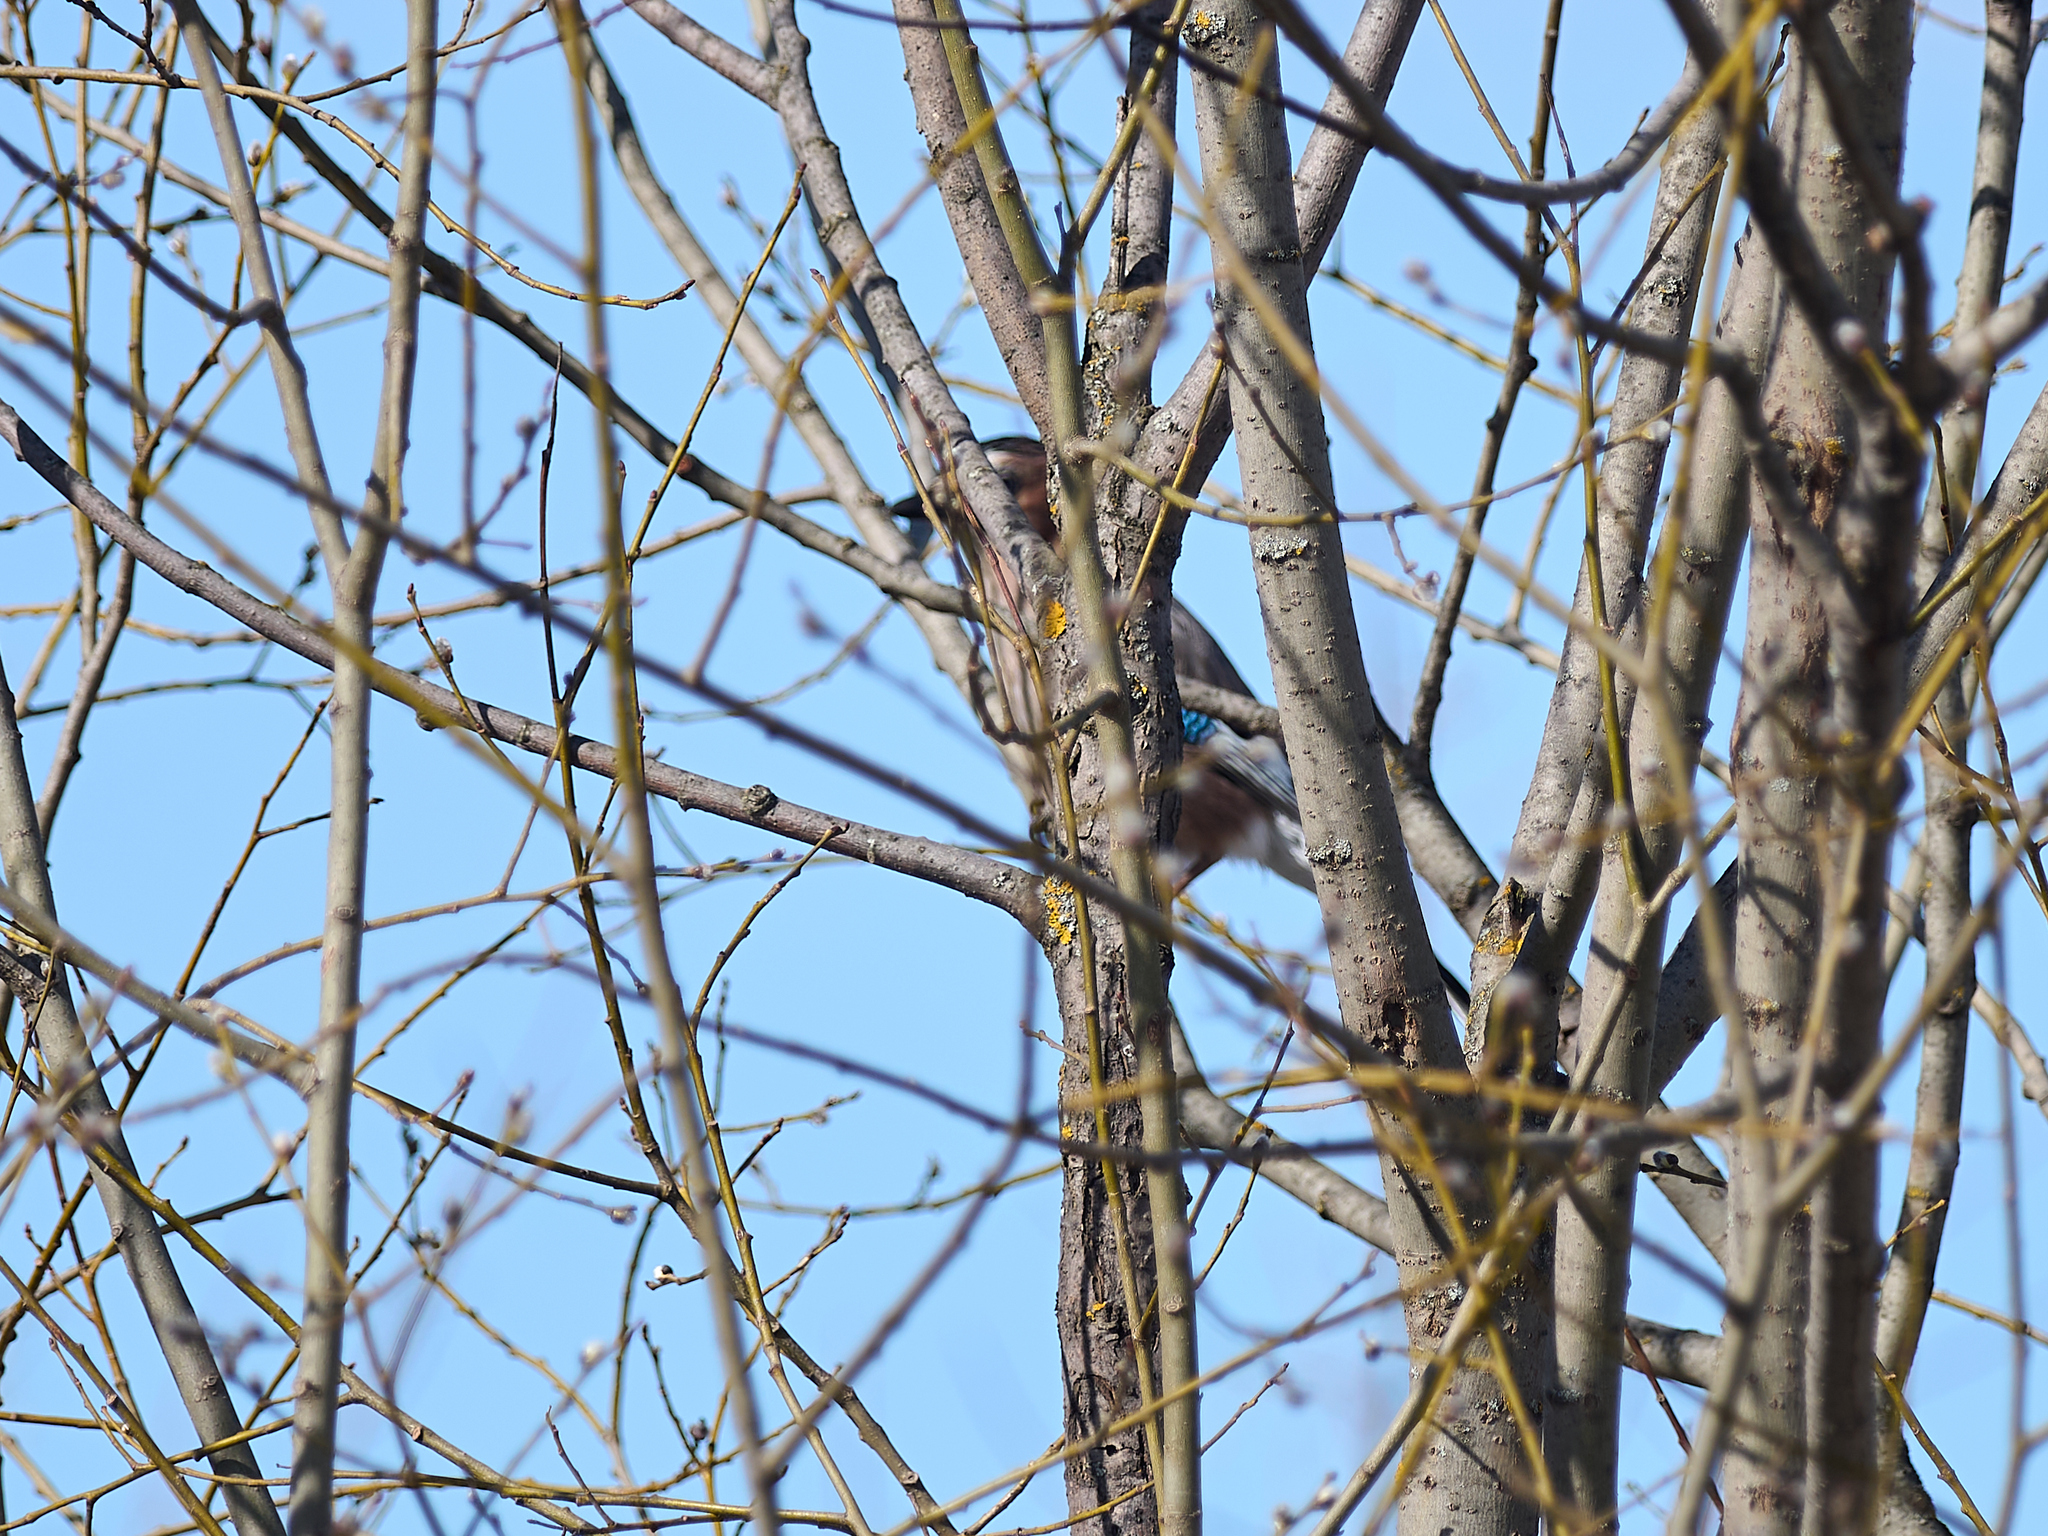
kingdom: Animalia
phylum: Chordata
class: Aves
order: Passeriformes
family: Corvidae
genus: Garrulus
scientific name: Garrulus glandarius
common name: Eurasian jay
